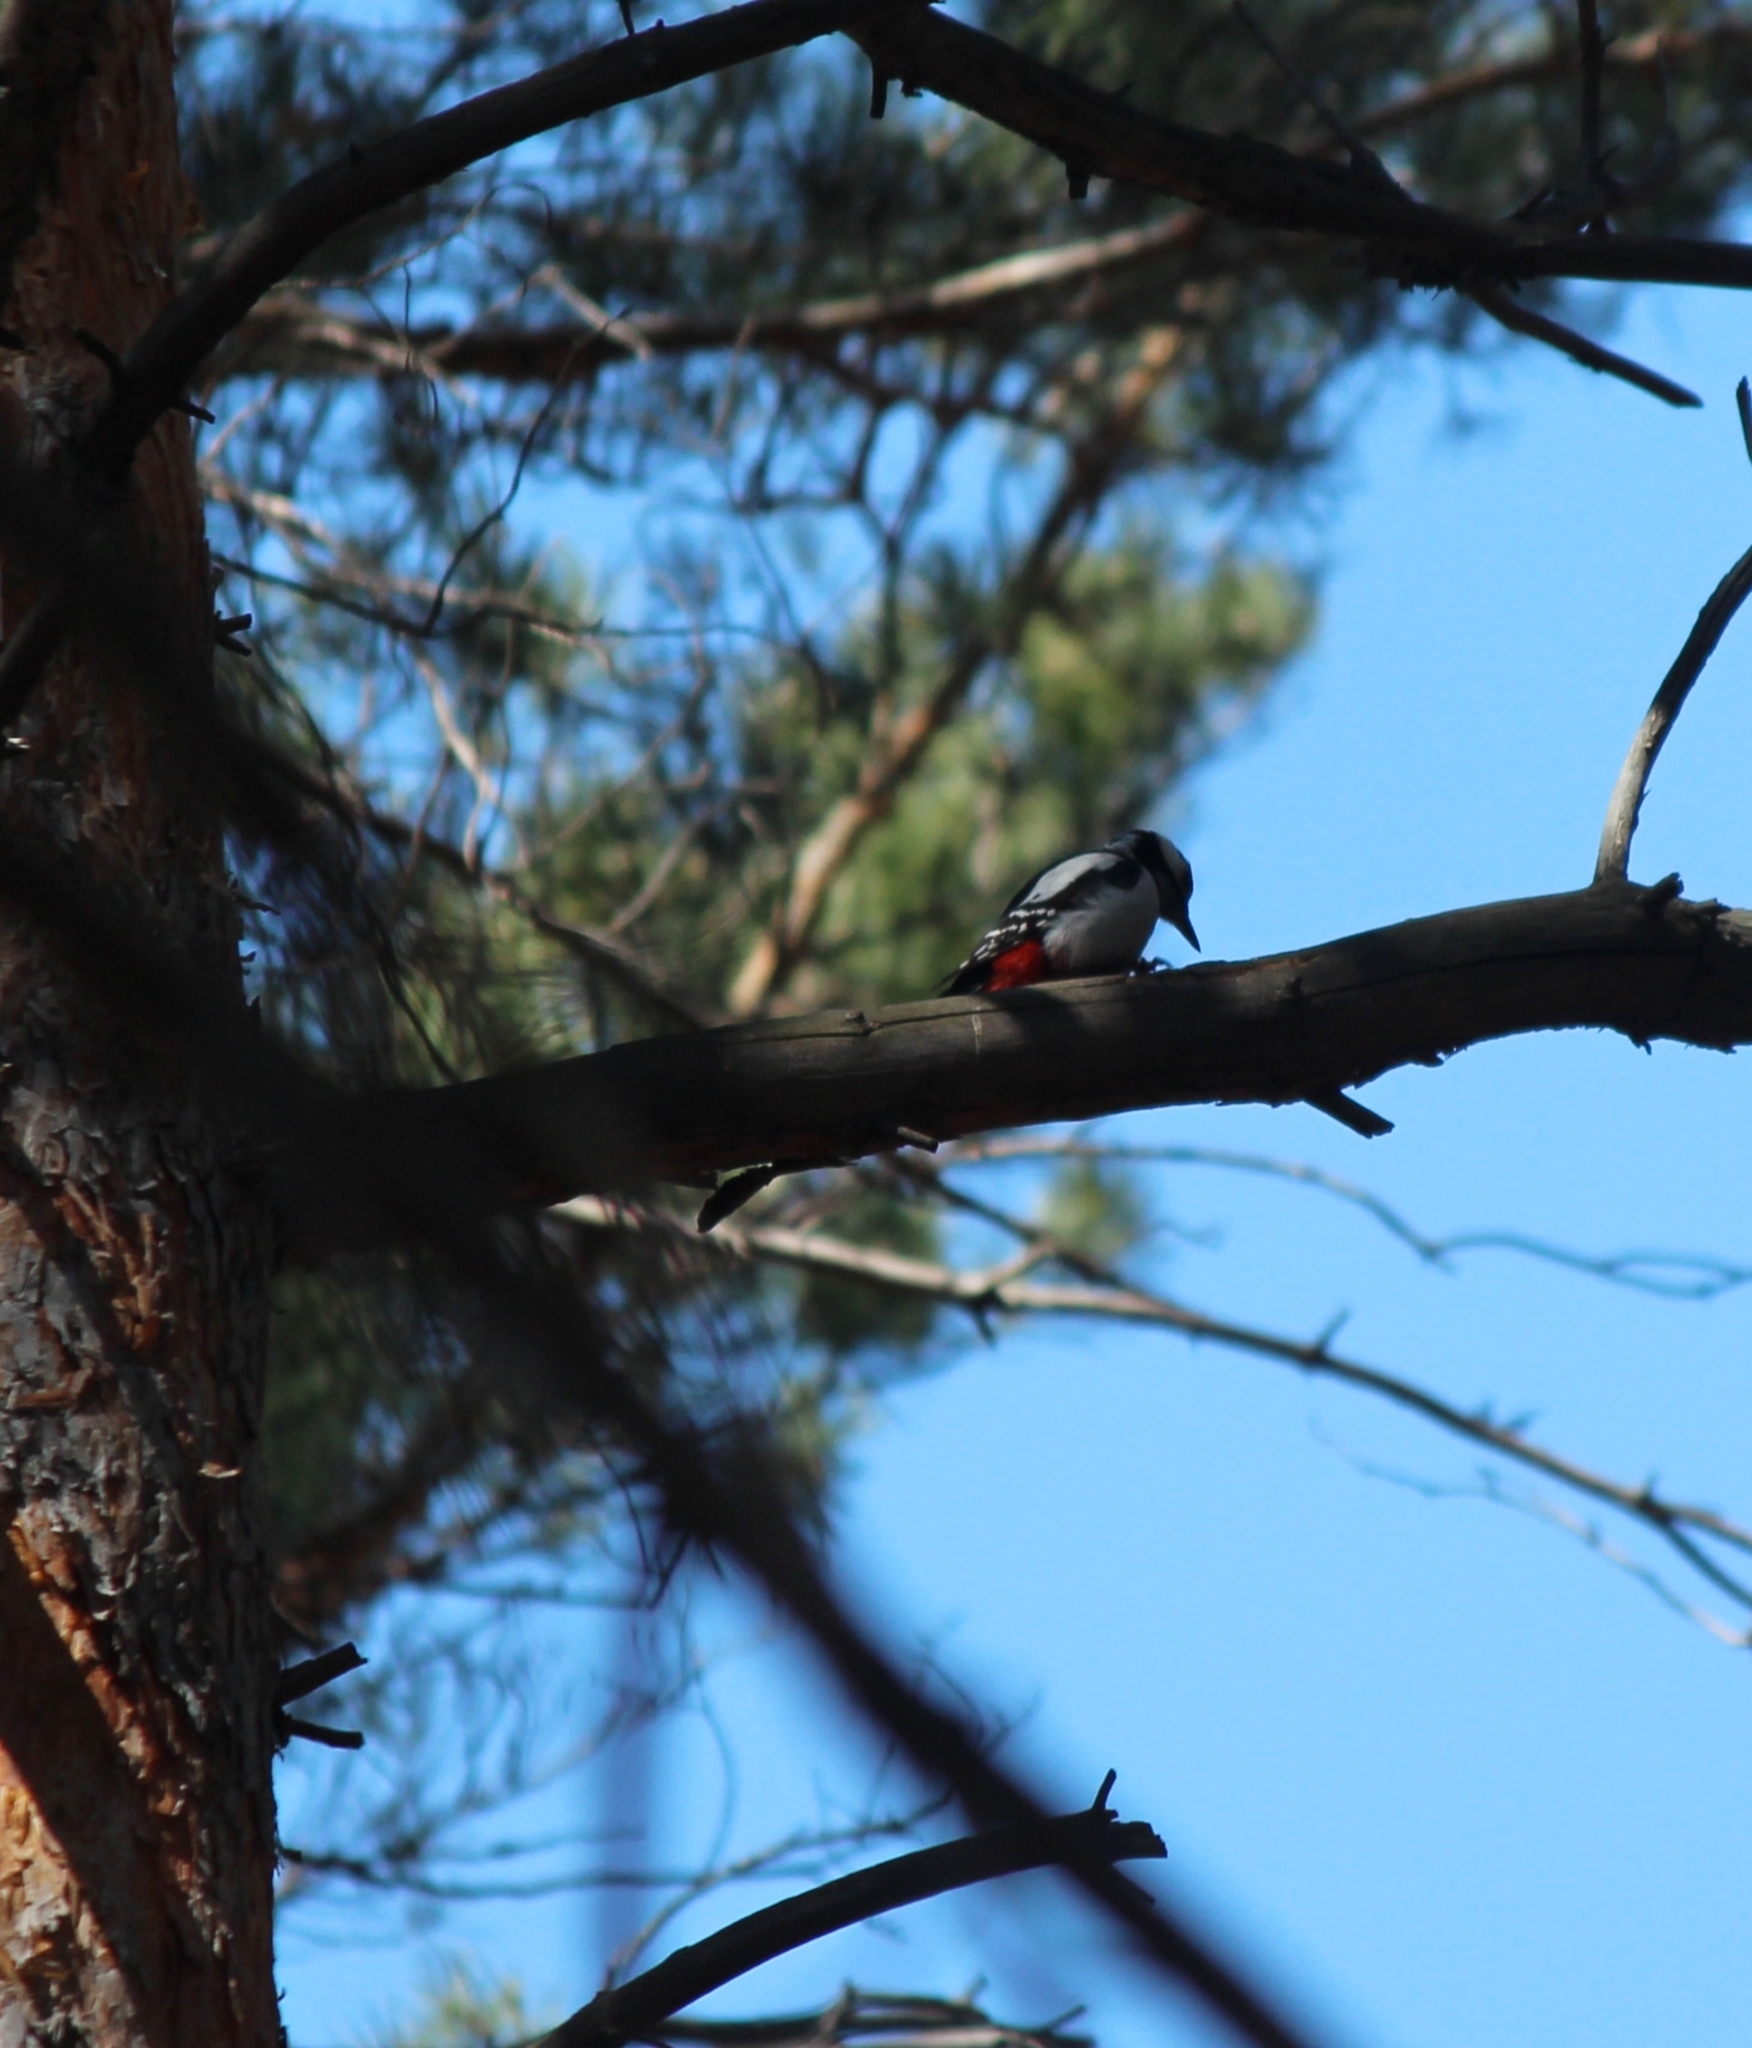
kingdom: Animalia
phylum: Chordata
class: Aves
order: Piciformes
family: Picidae
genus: Dendrocopos
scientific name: Dendrocopos major
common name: Great spotted woodpecker
